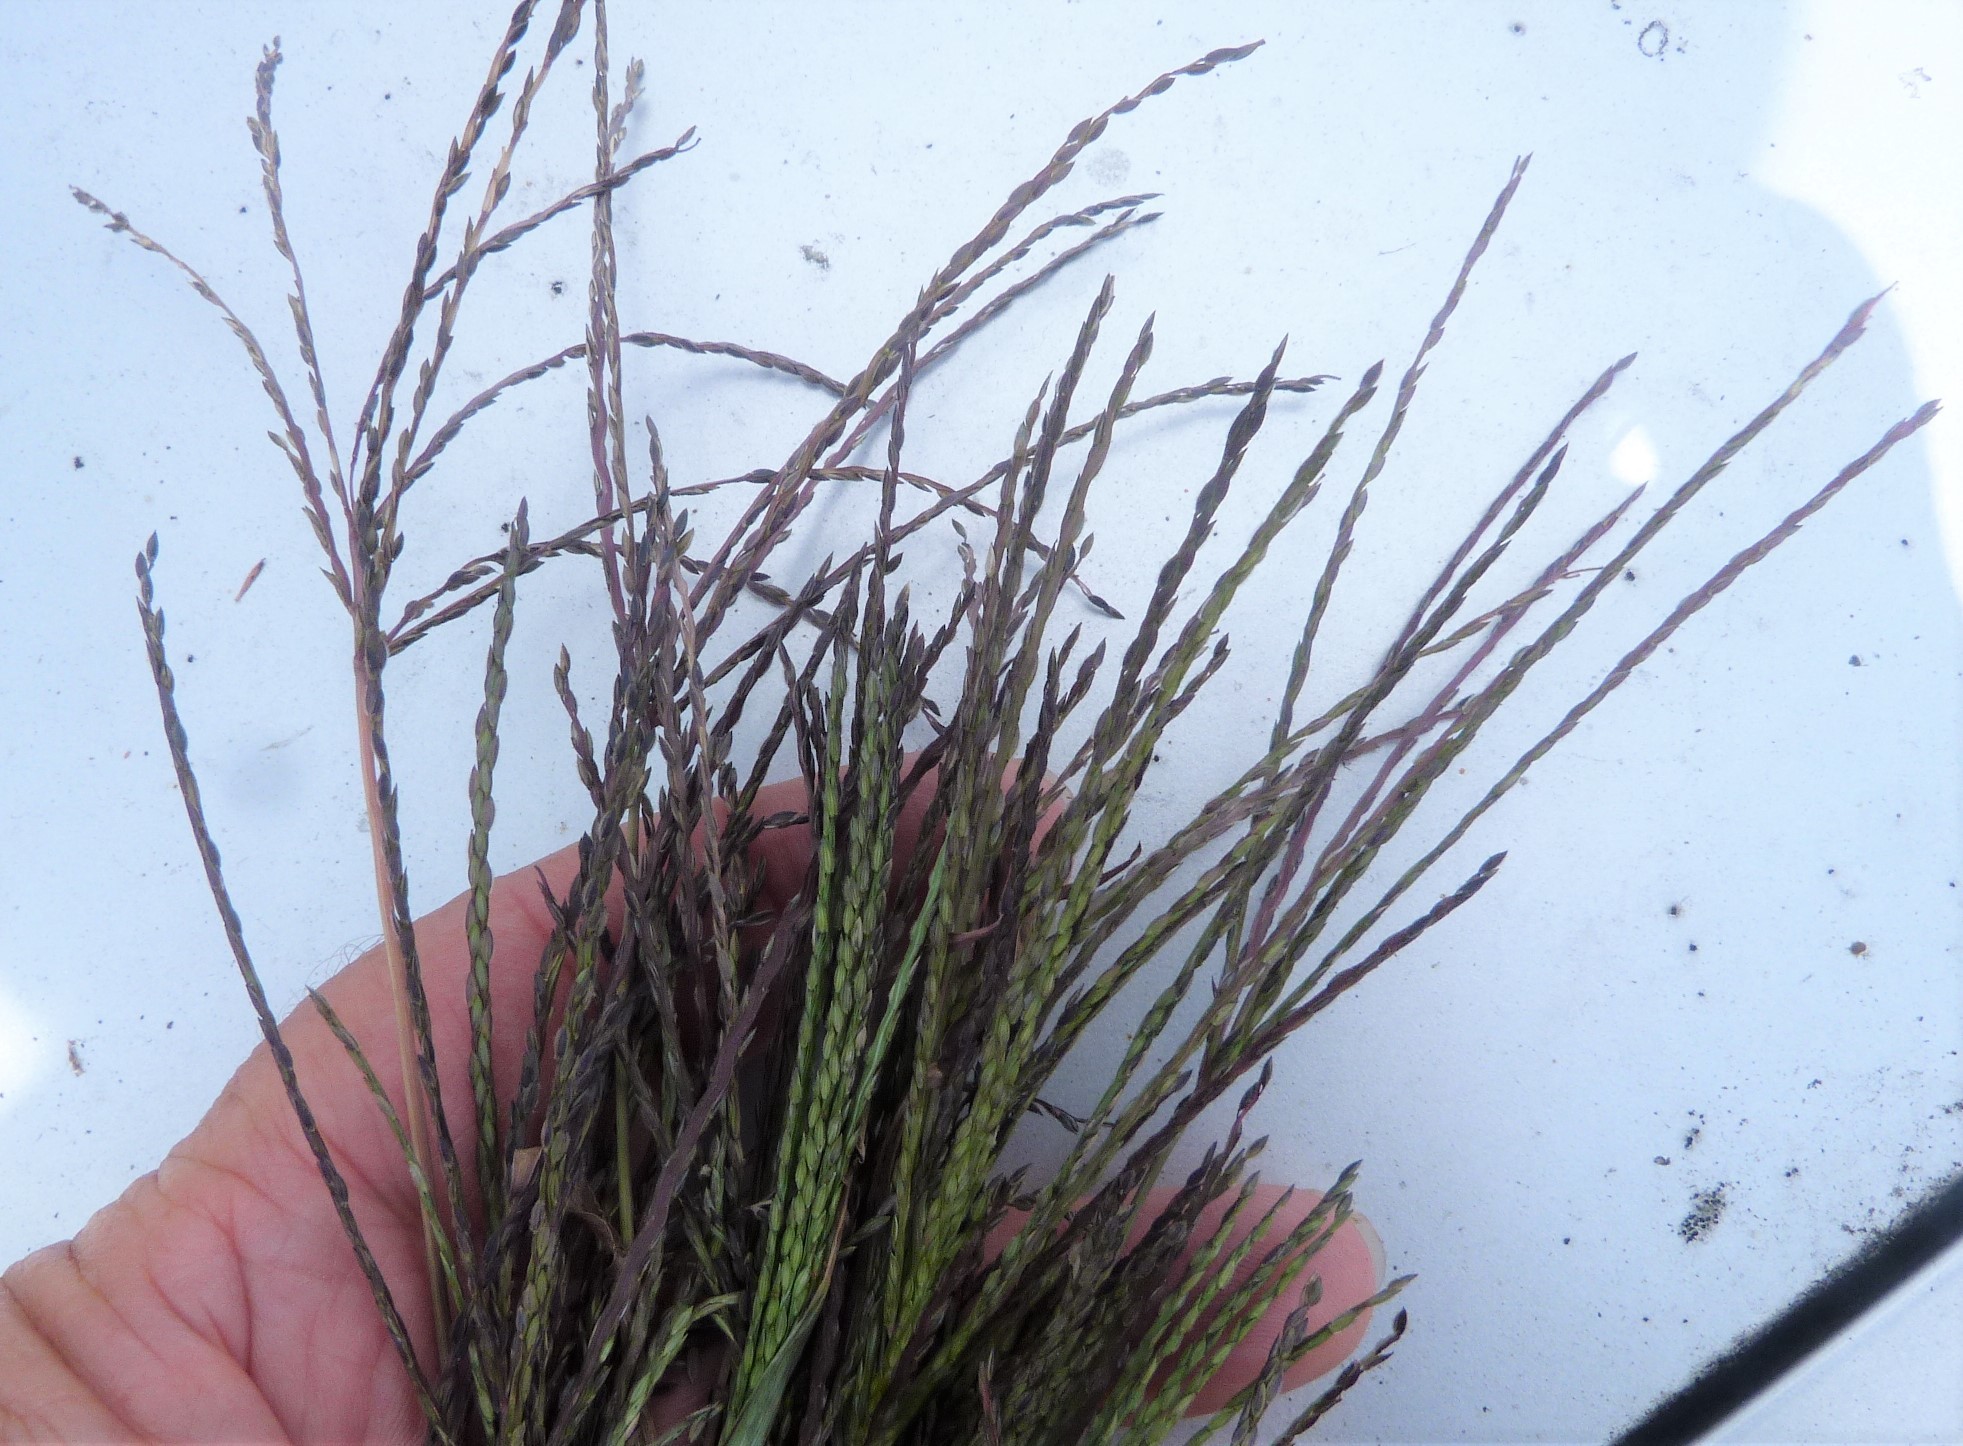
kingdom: Plantae
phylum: Tracheophyta
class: Liliopsida
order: Poales
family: Poaceae
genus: Digitaria
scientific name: Digitaria sanguinalis
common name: Hairy crabgrass
